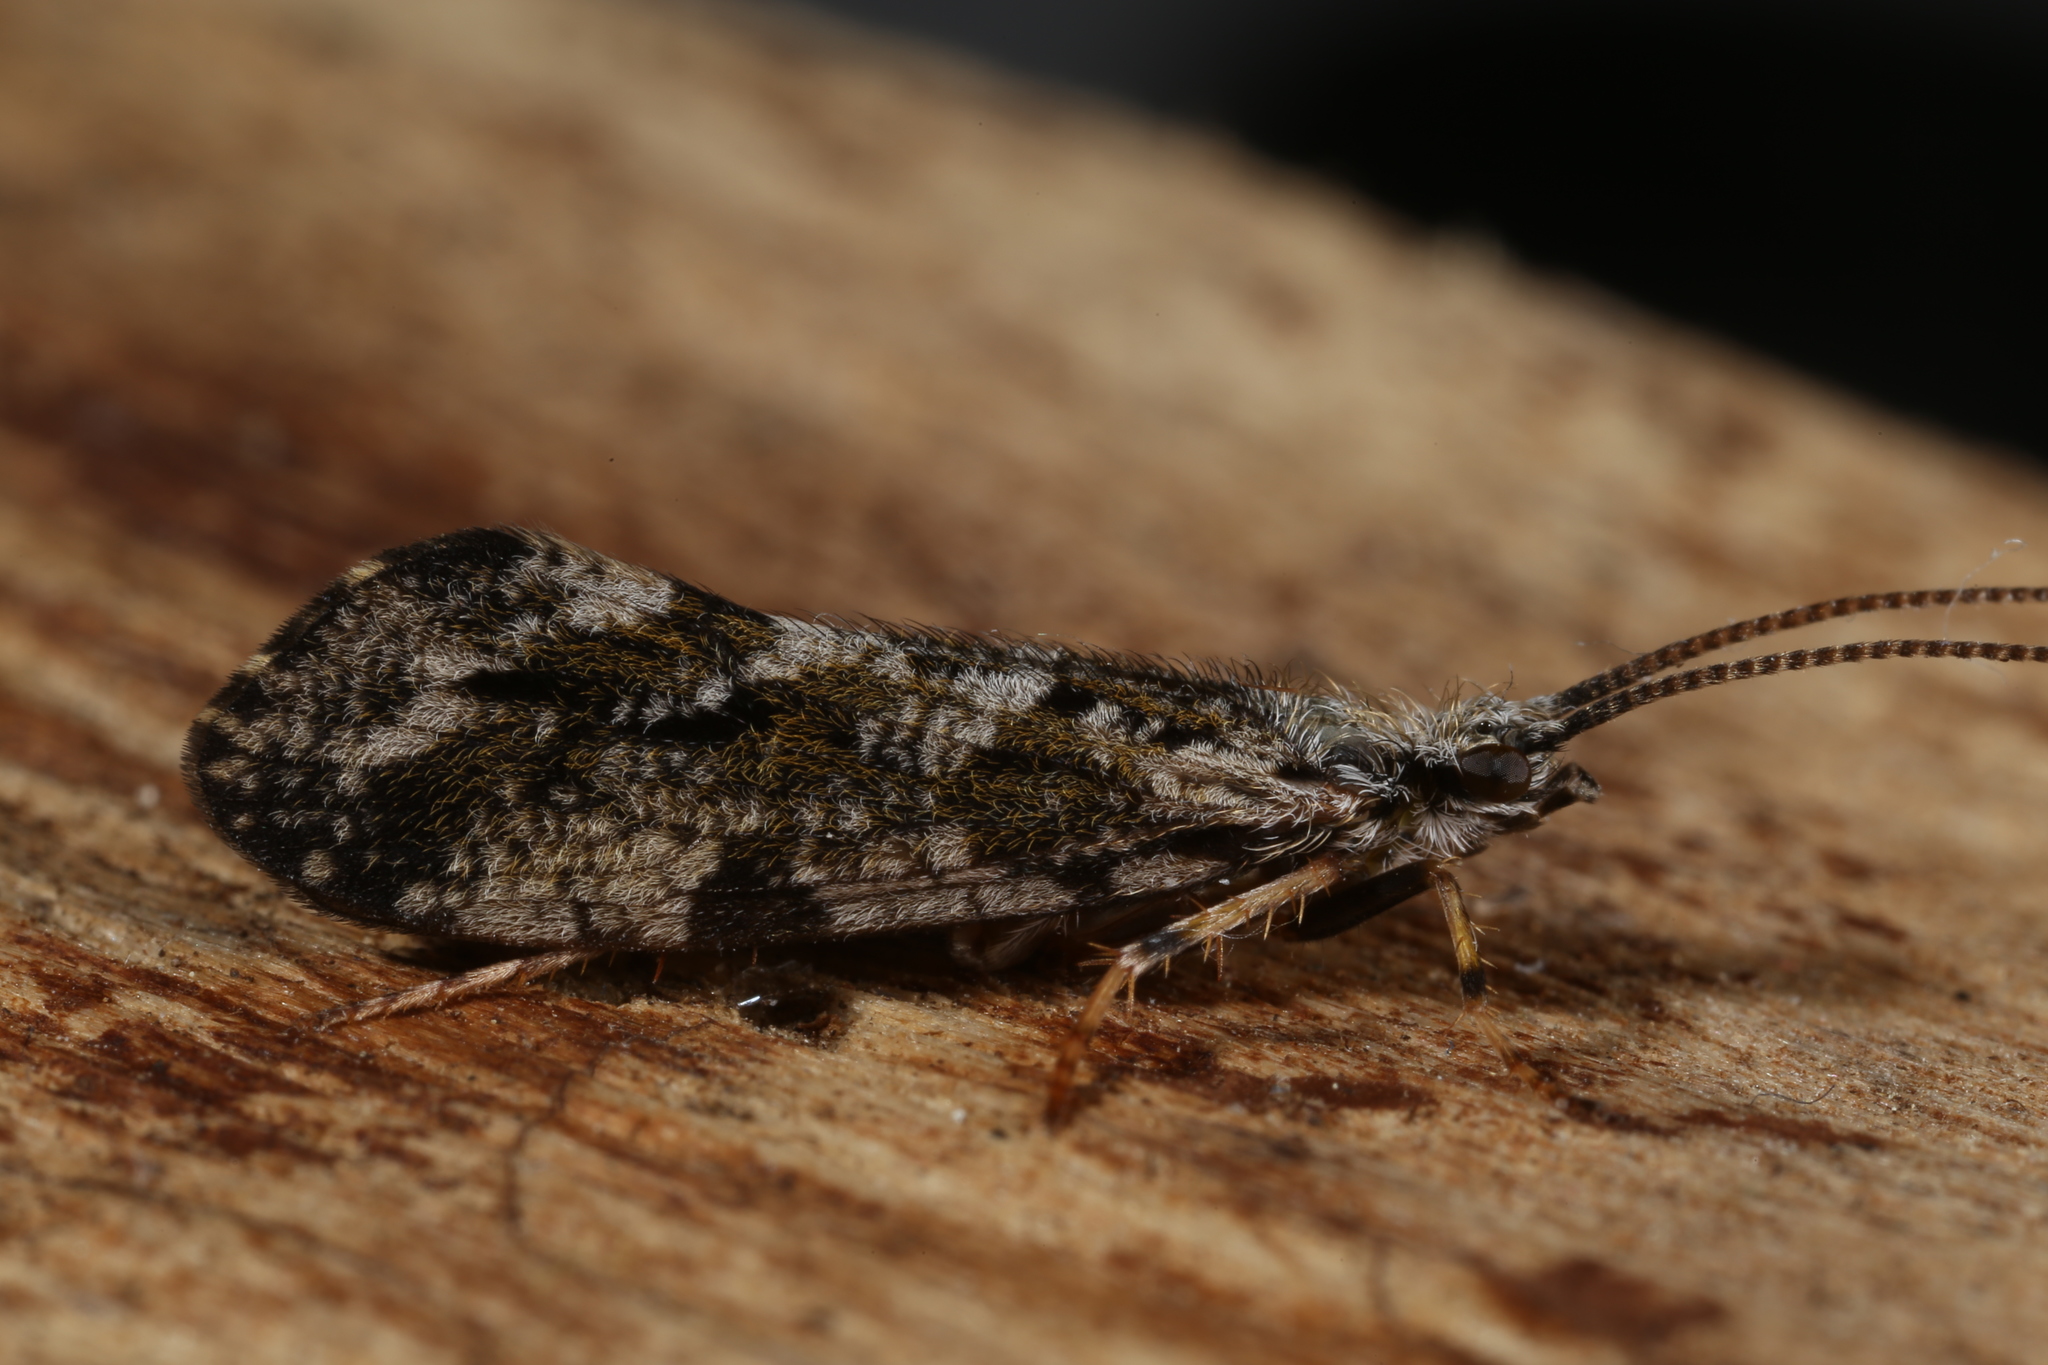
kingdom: Animalia
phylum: Arthropoda
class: Insecta
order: Trichoptera
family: Phryganeidae
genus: Trichostegia
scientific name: Trichostegia minor
